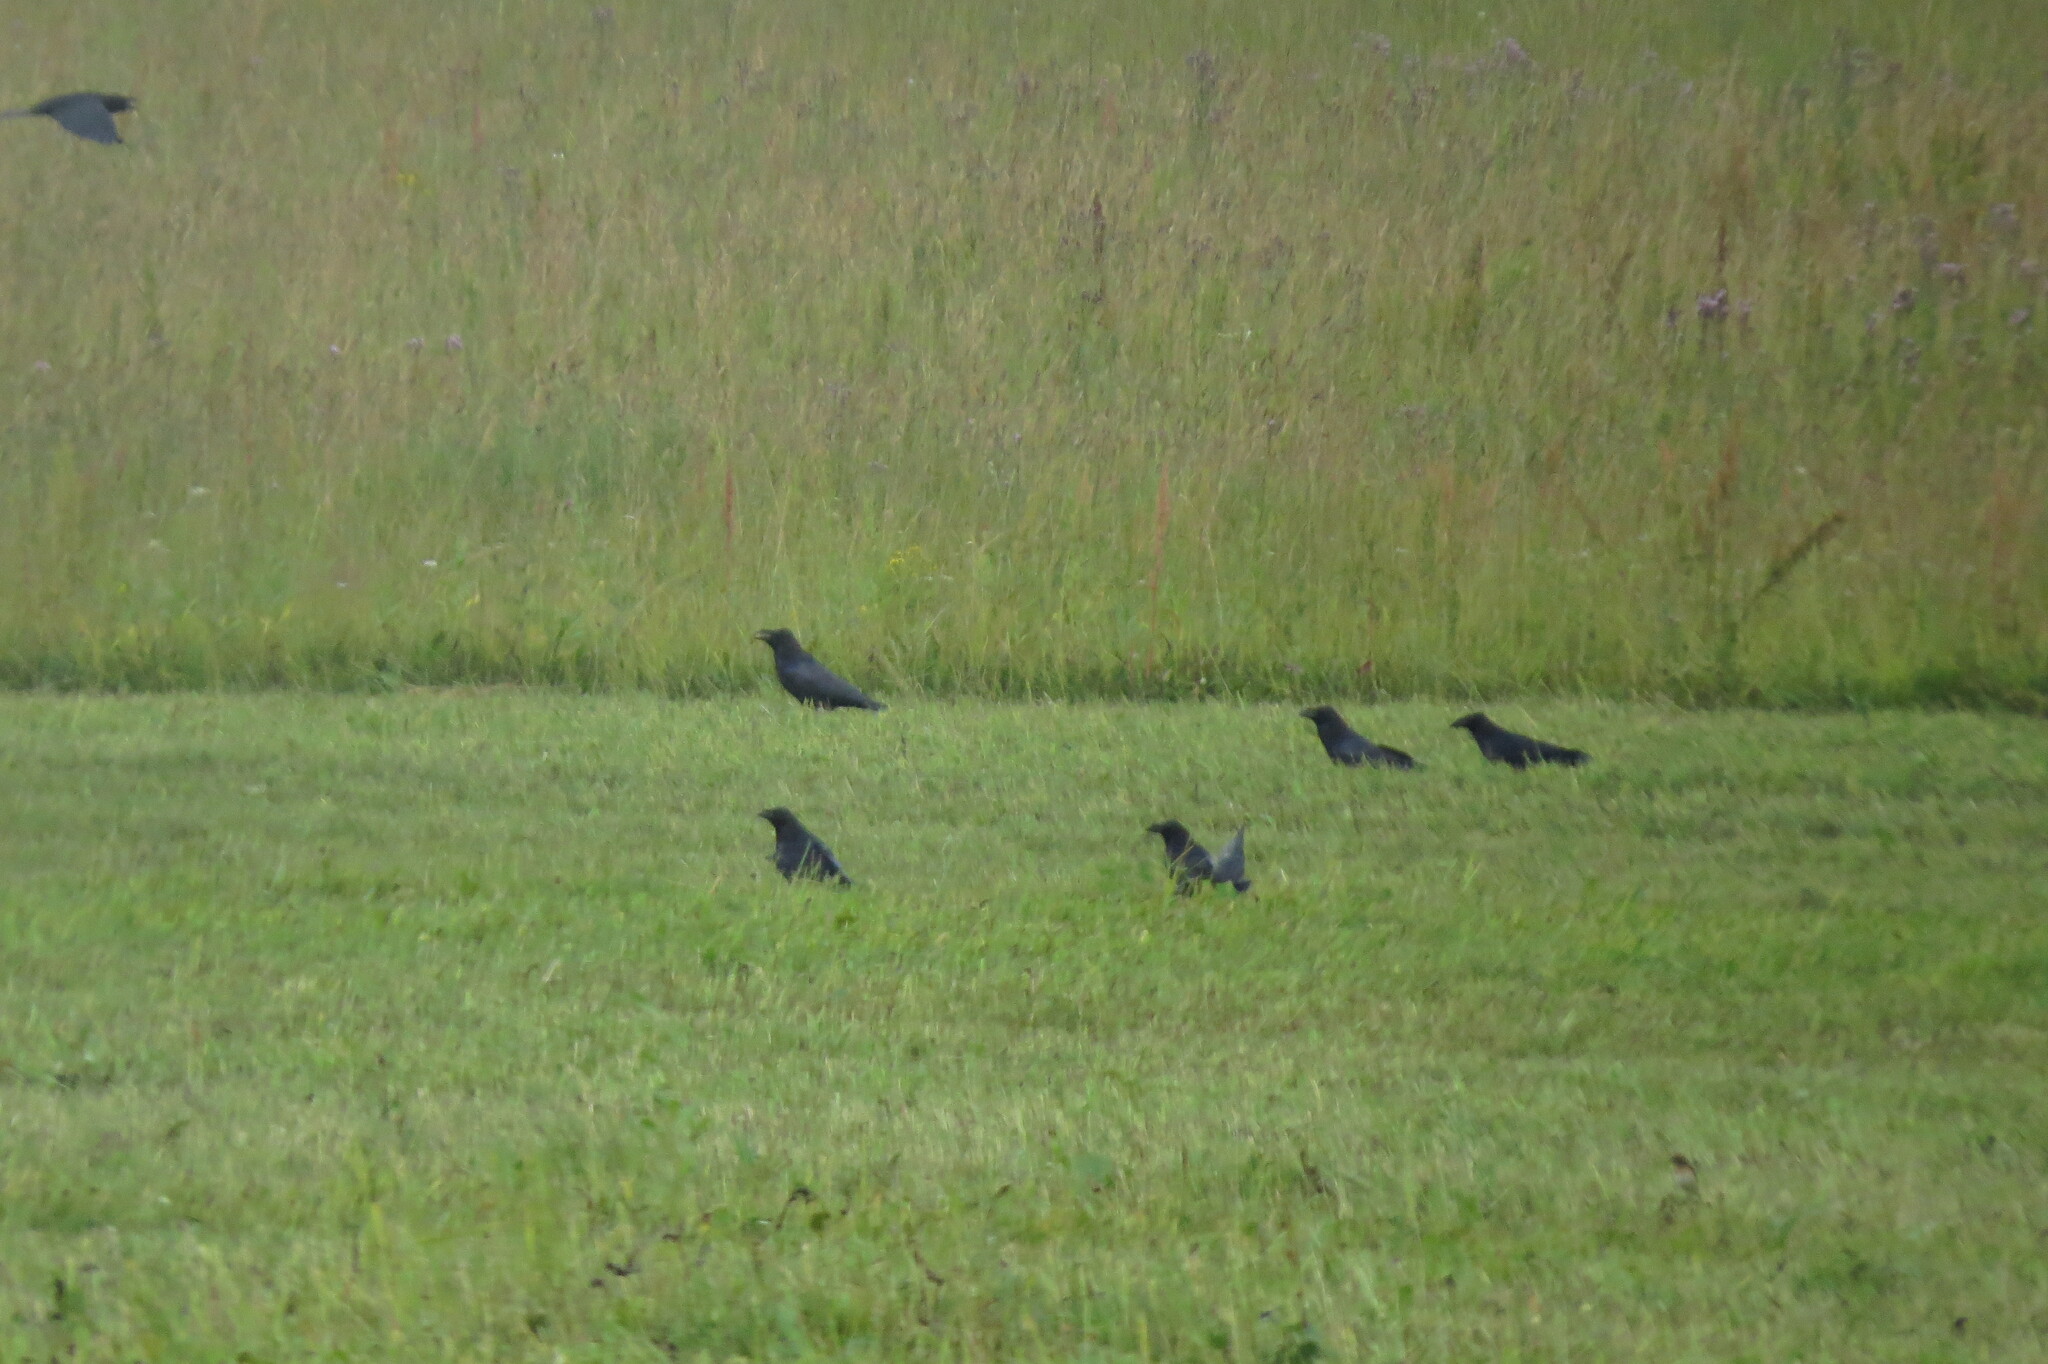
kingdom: Animalia
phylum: Chordata
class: Aves
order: Passeriformes
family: Corvidae
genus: Corvus
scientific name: Corvus corax
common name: Common raven
